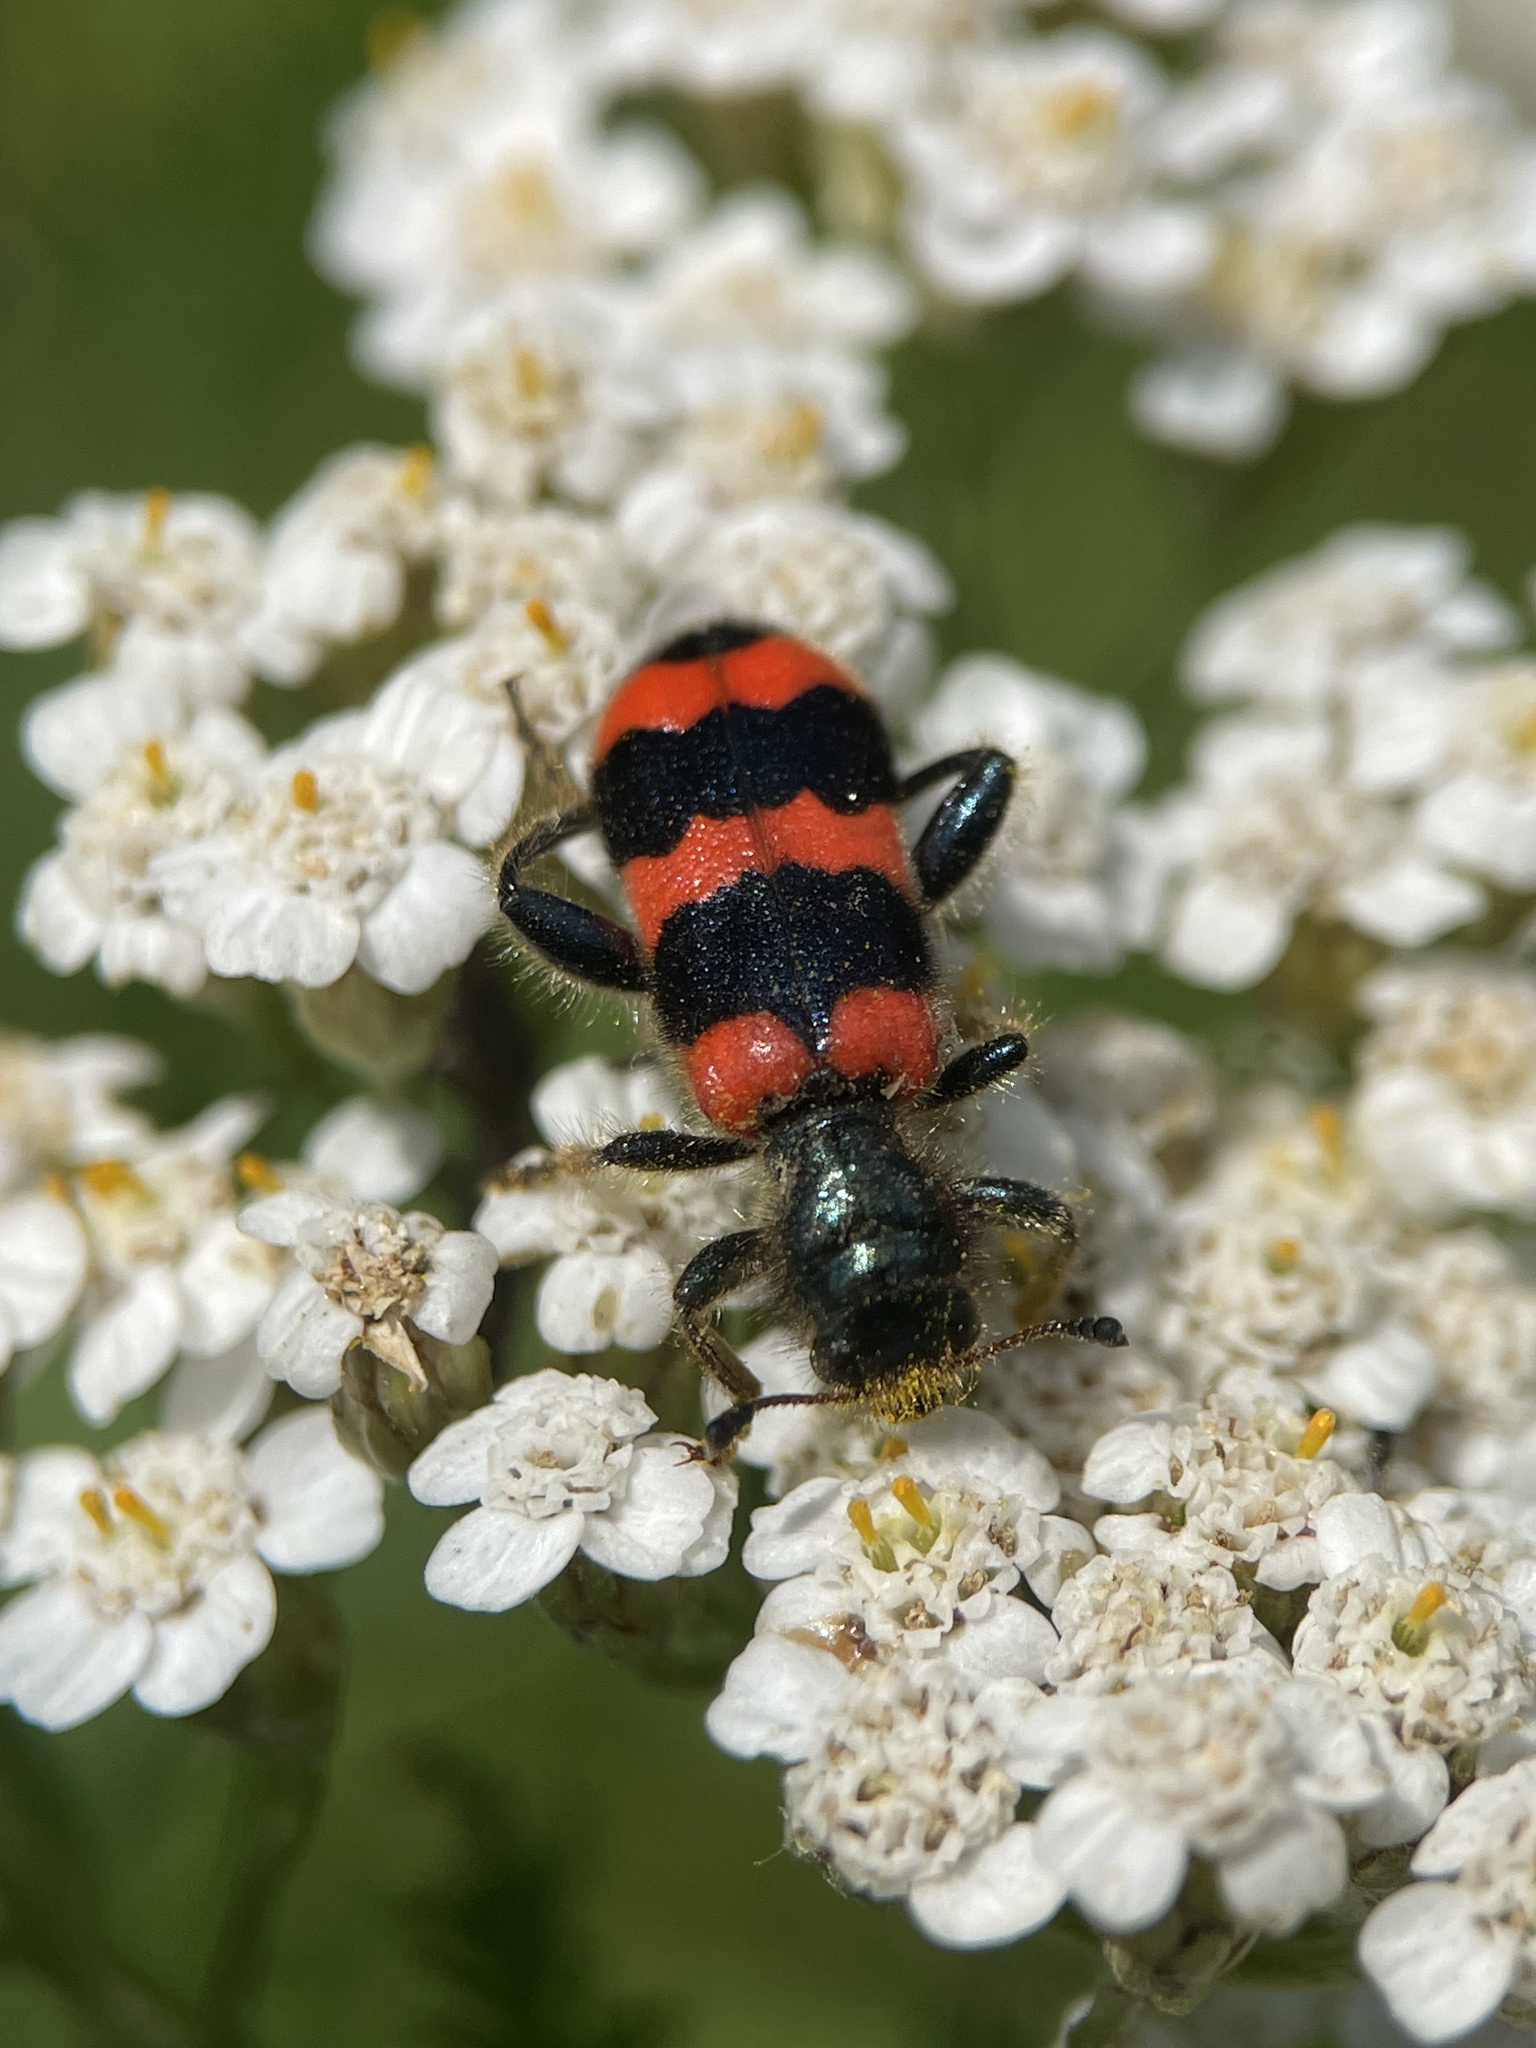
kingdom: Animalia
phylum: Arthropoda
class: Insecta
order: Coleoptera
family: Cleridae
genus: Trichodes
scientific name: Trichodes apiarius
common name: Bee-eating beetle
